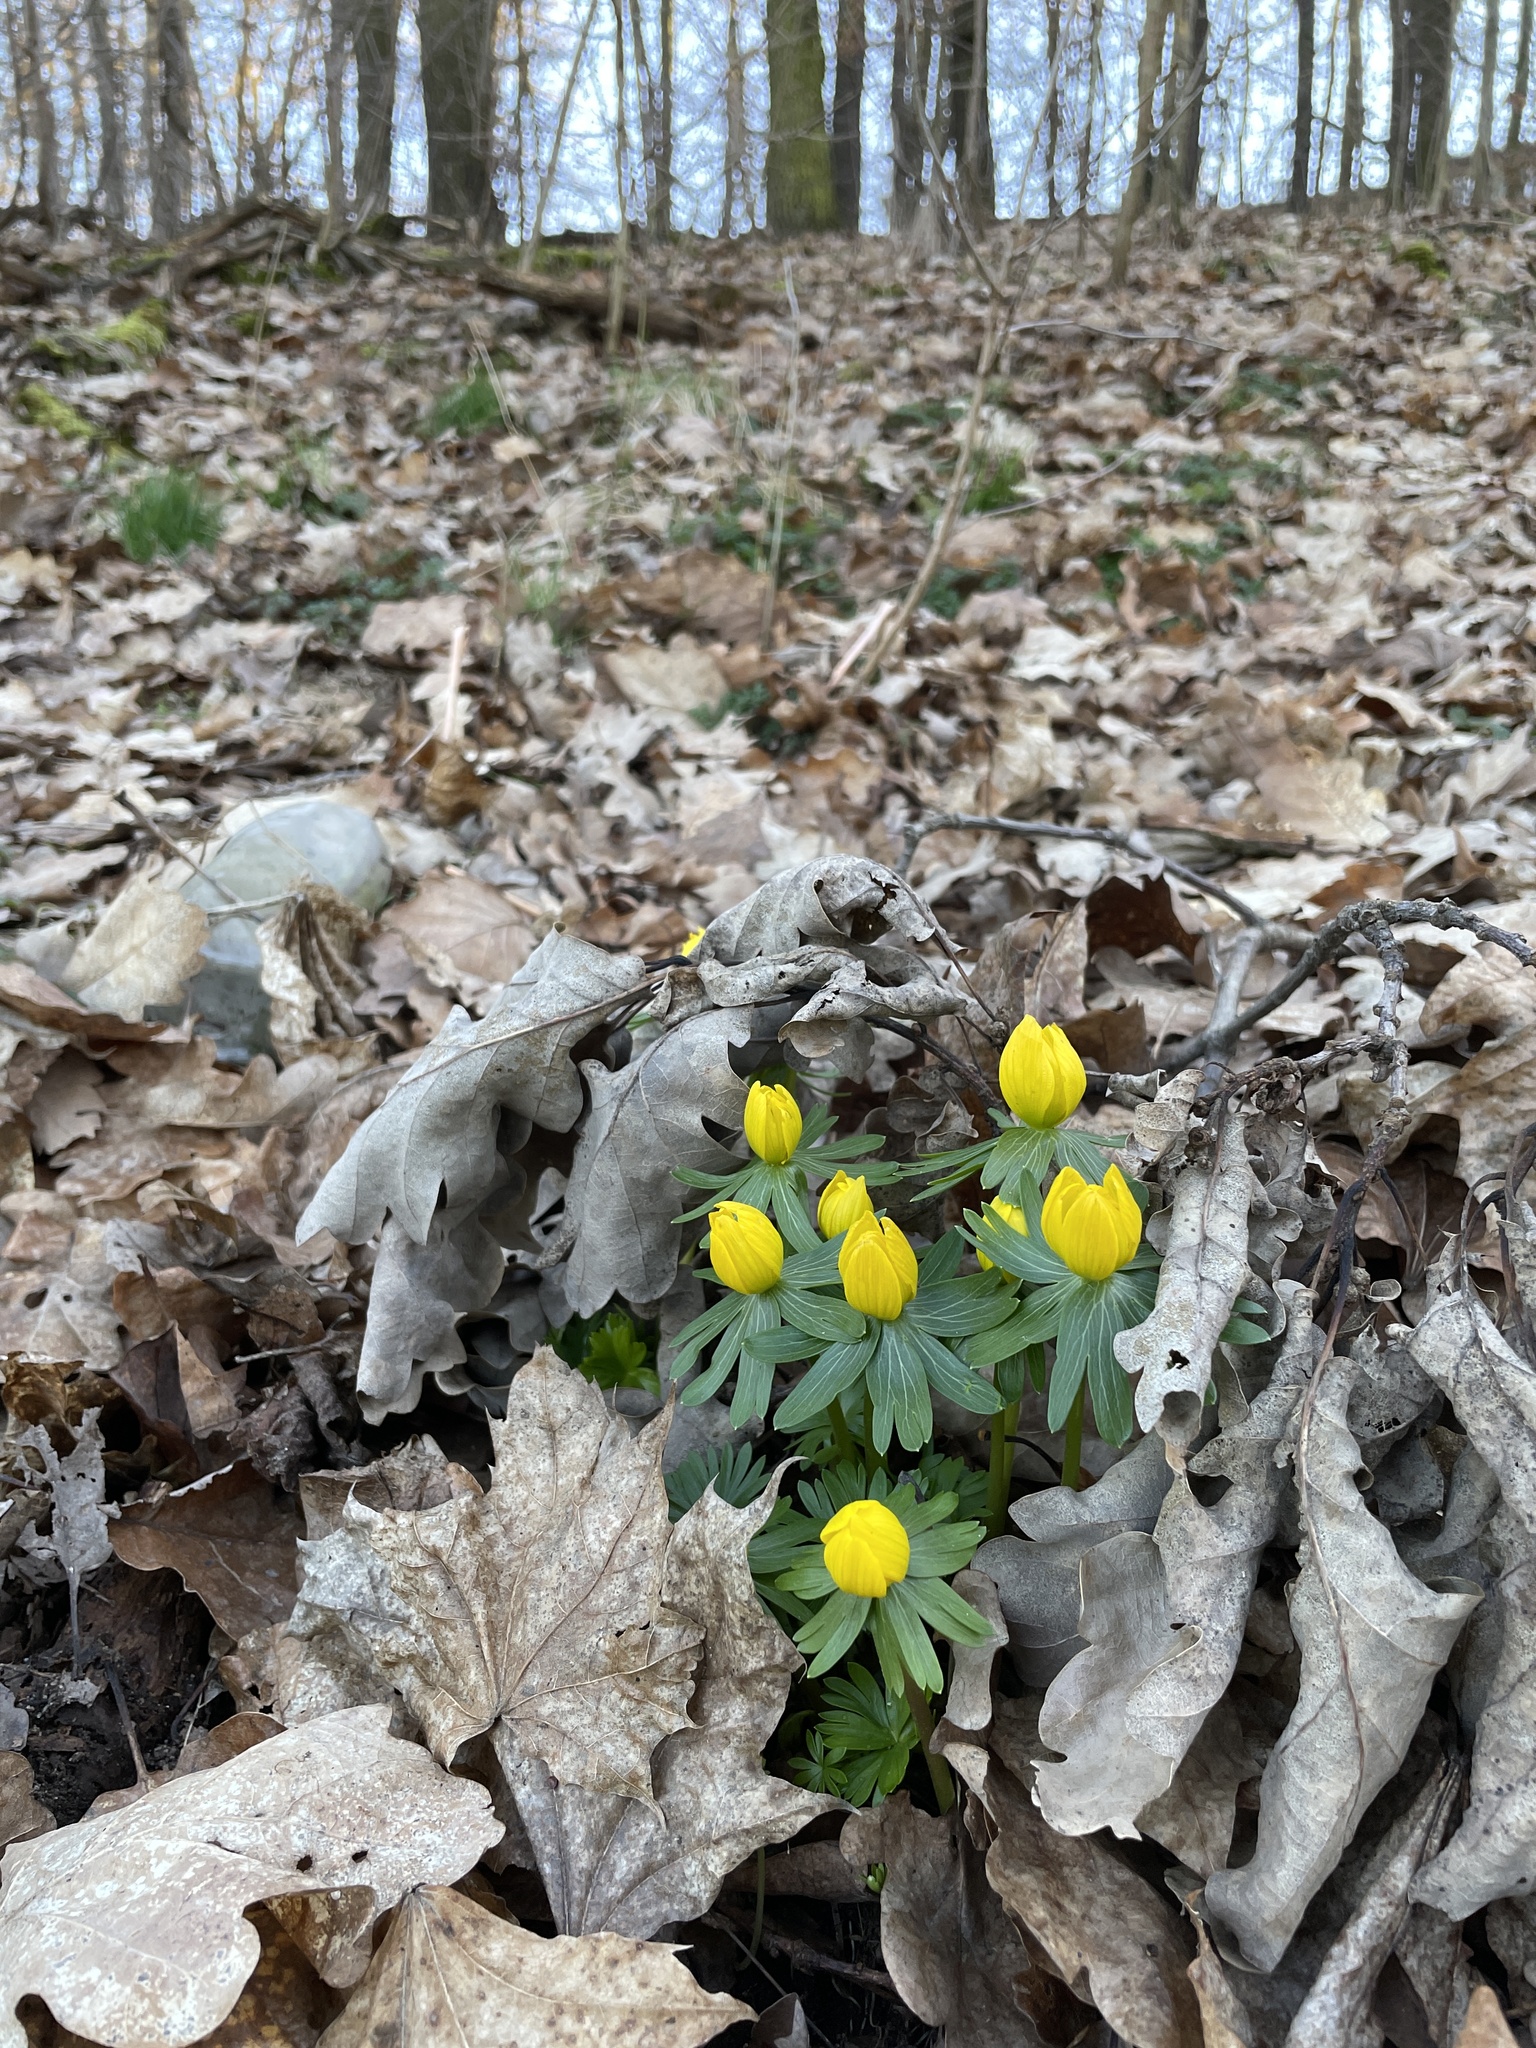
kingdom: Plantae
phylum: Tracheophyta
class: Magnoliopsida
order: Ranunculales
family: Ranunculaceae
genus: Eranthis
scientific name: Eranthis hyemalis
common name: Winter aconite
